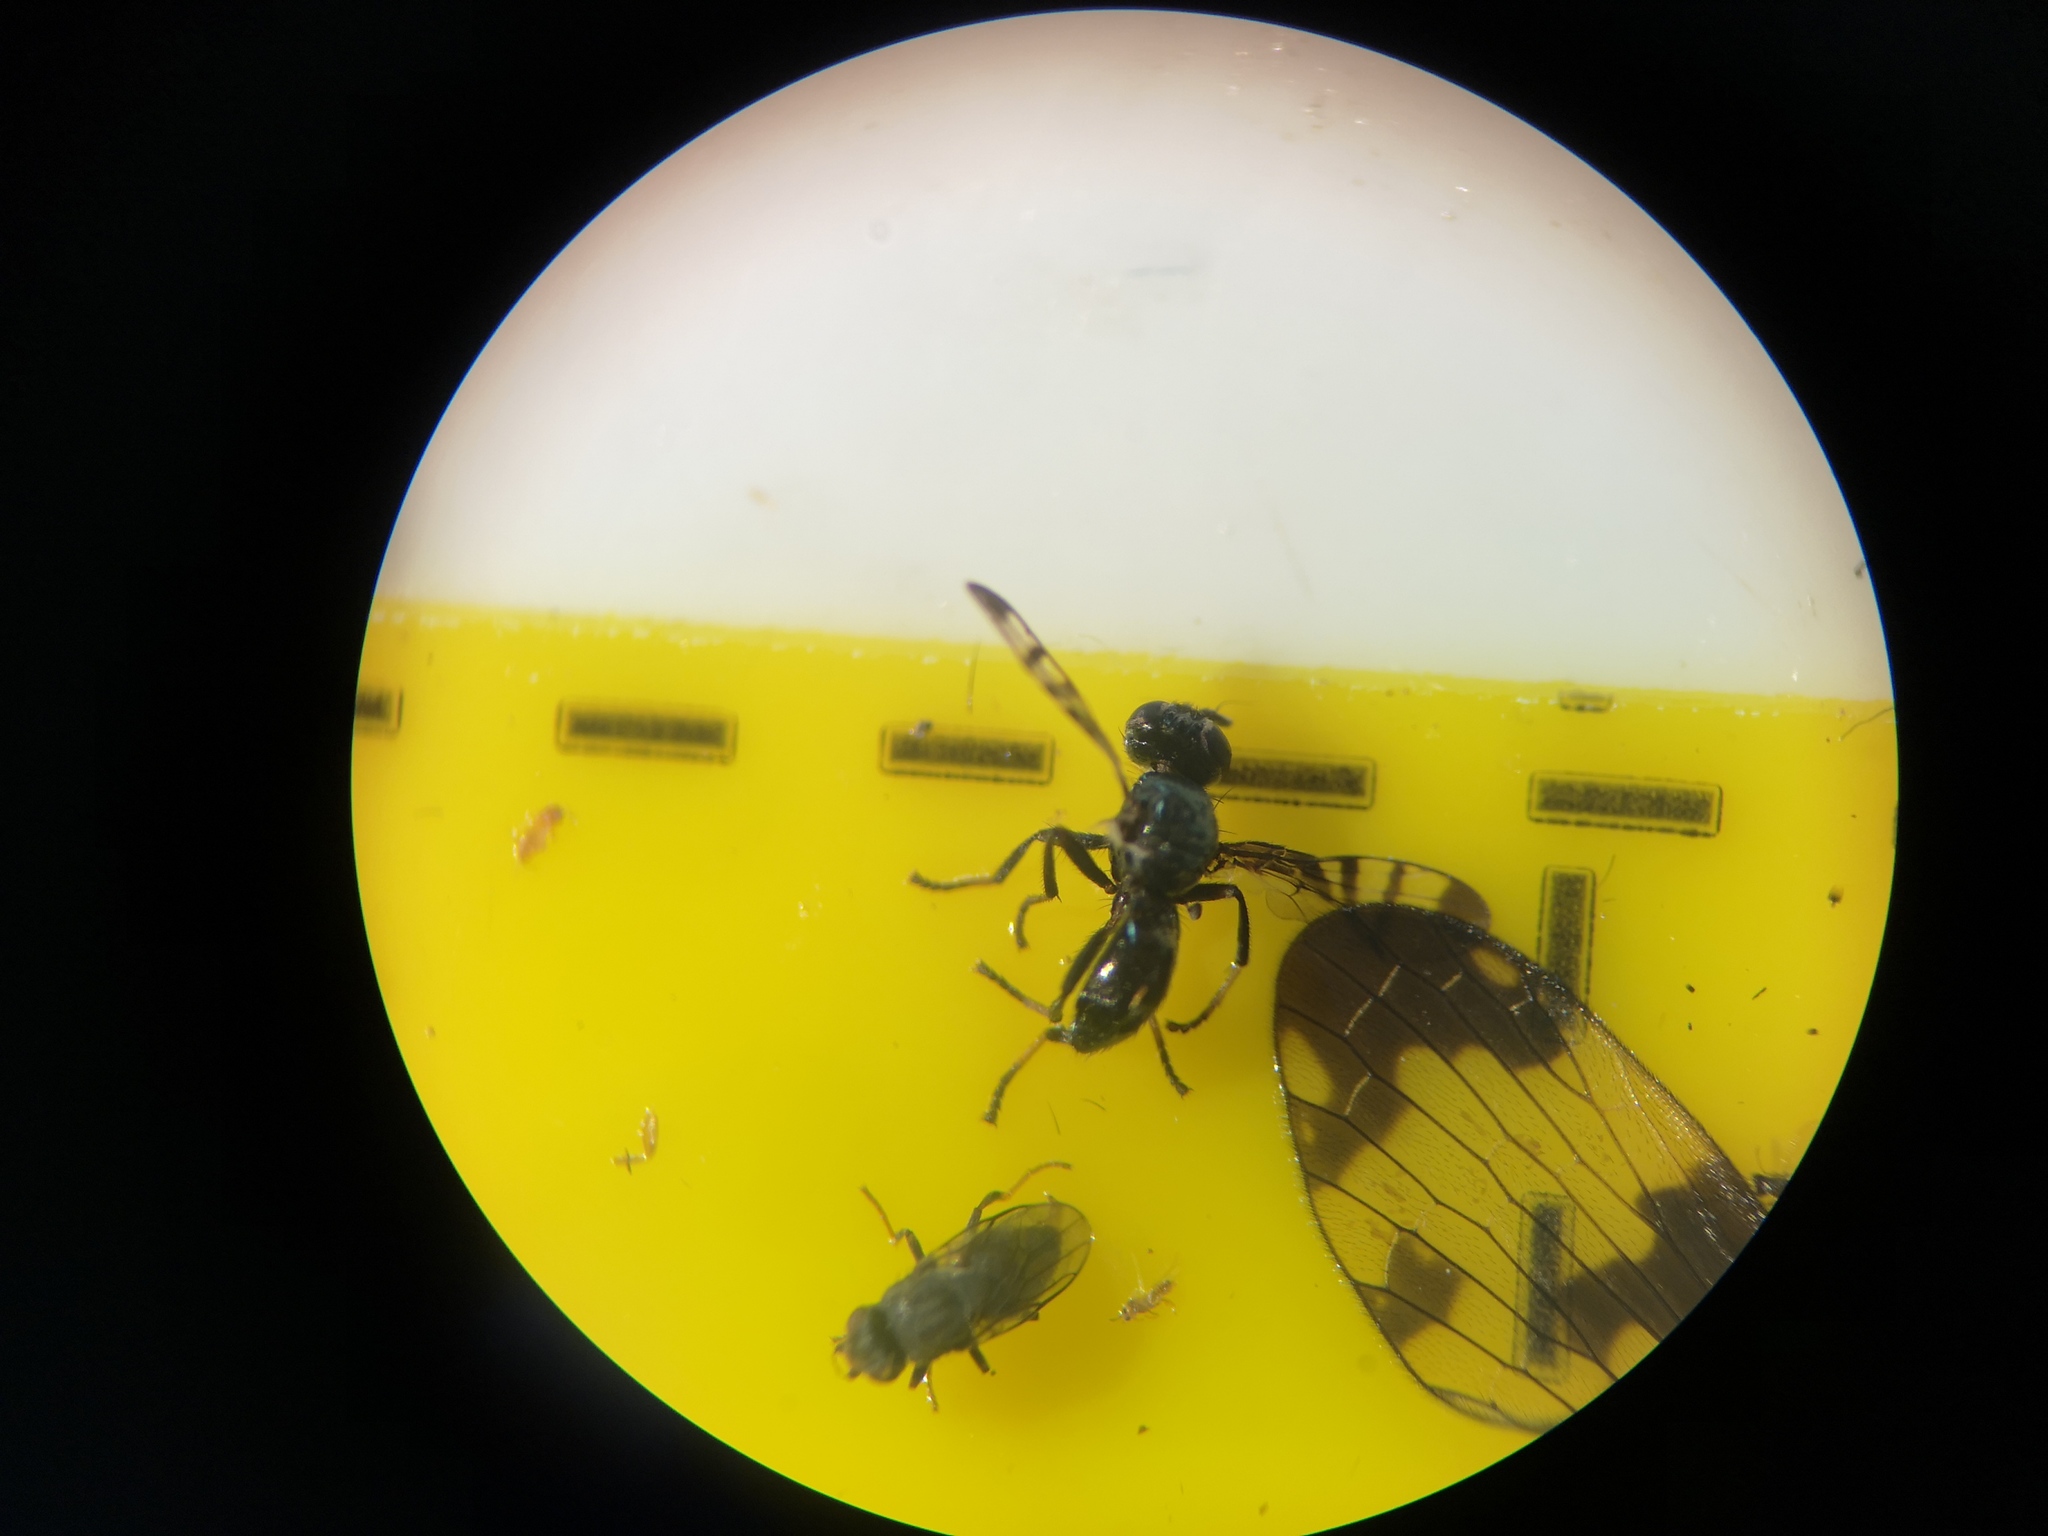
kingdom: Animalia
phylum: Arthropoda
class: Insecta
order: Diptera
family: Platystomatidae
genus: Rivellia
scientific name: Rivellia syngenesiae
